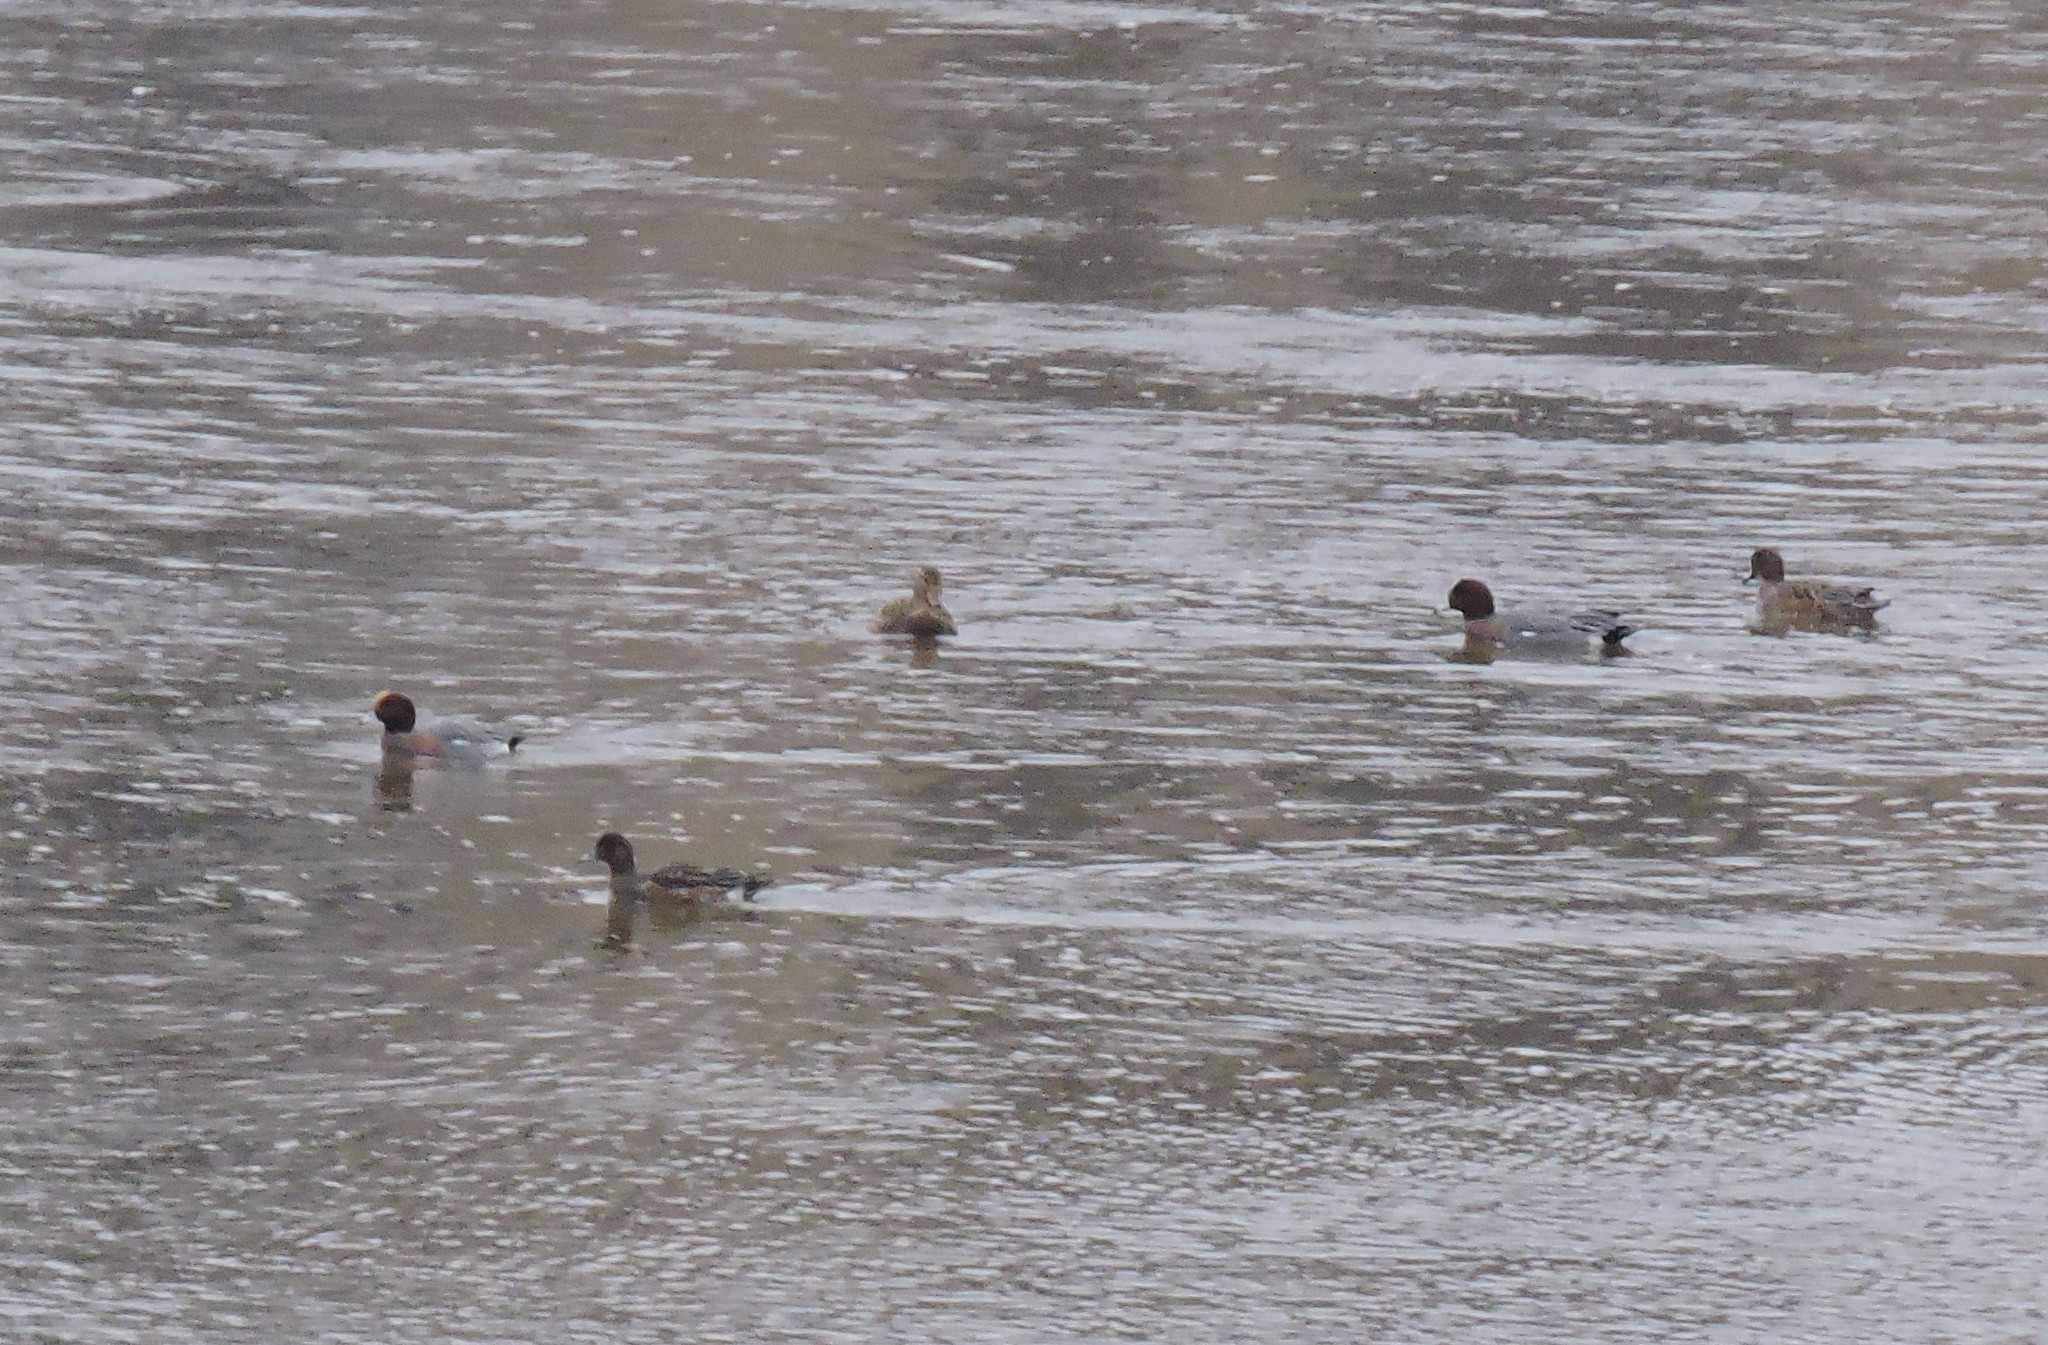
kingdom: Animalia
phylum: Chordata
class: Aves
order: Anseriformes
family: Anatidae
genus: Mareca
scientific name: Mareca penelope
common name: Eurasian wigeon
